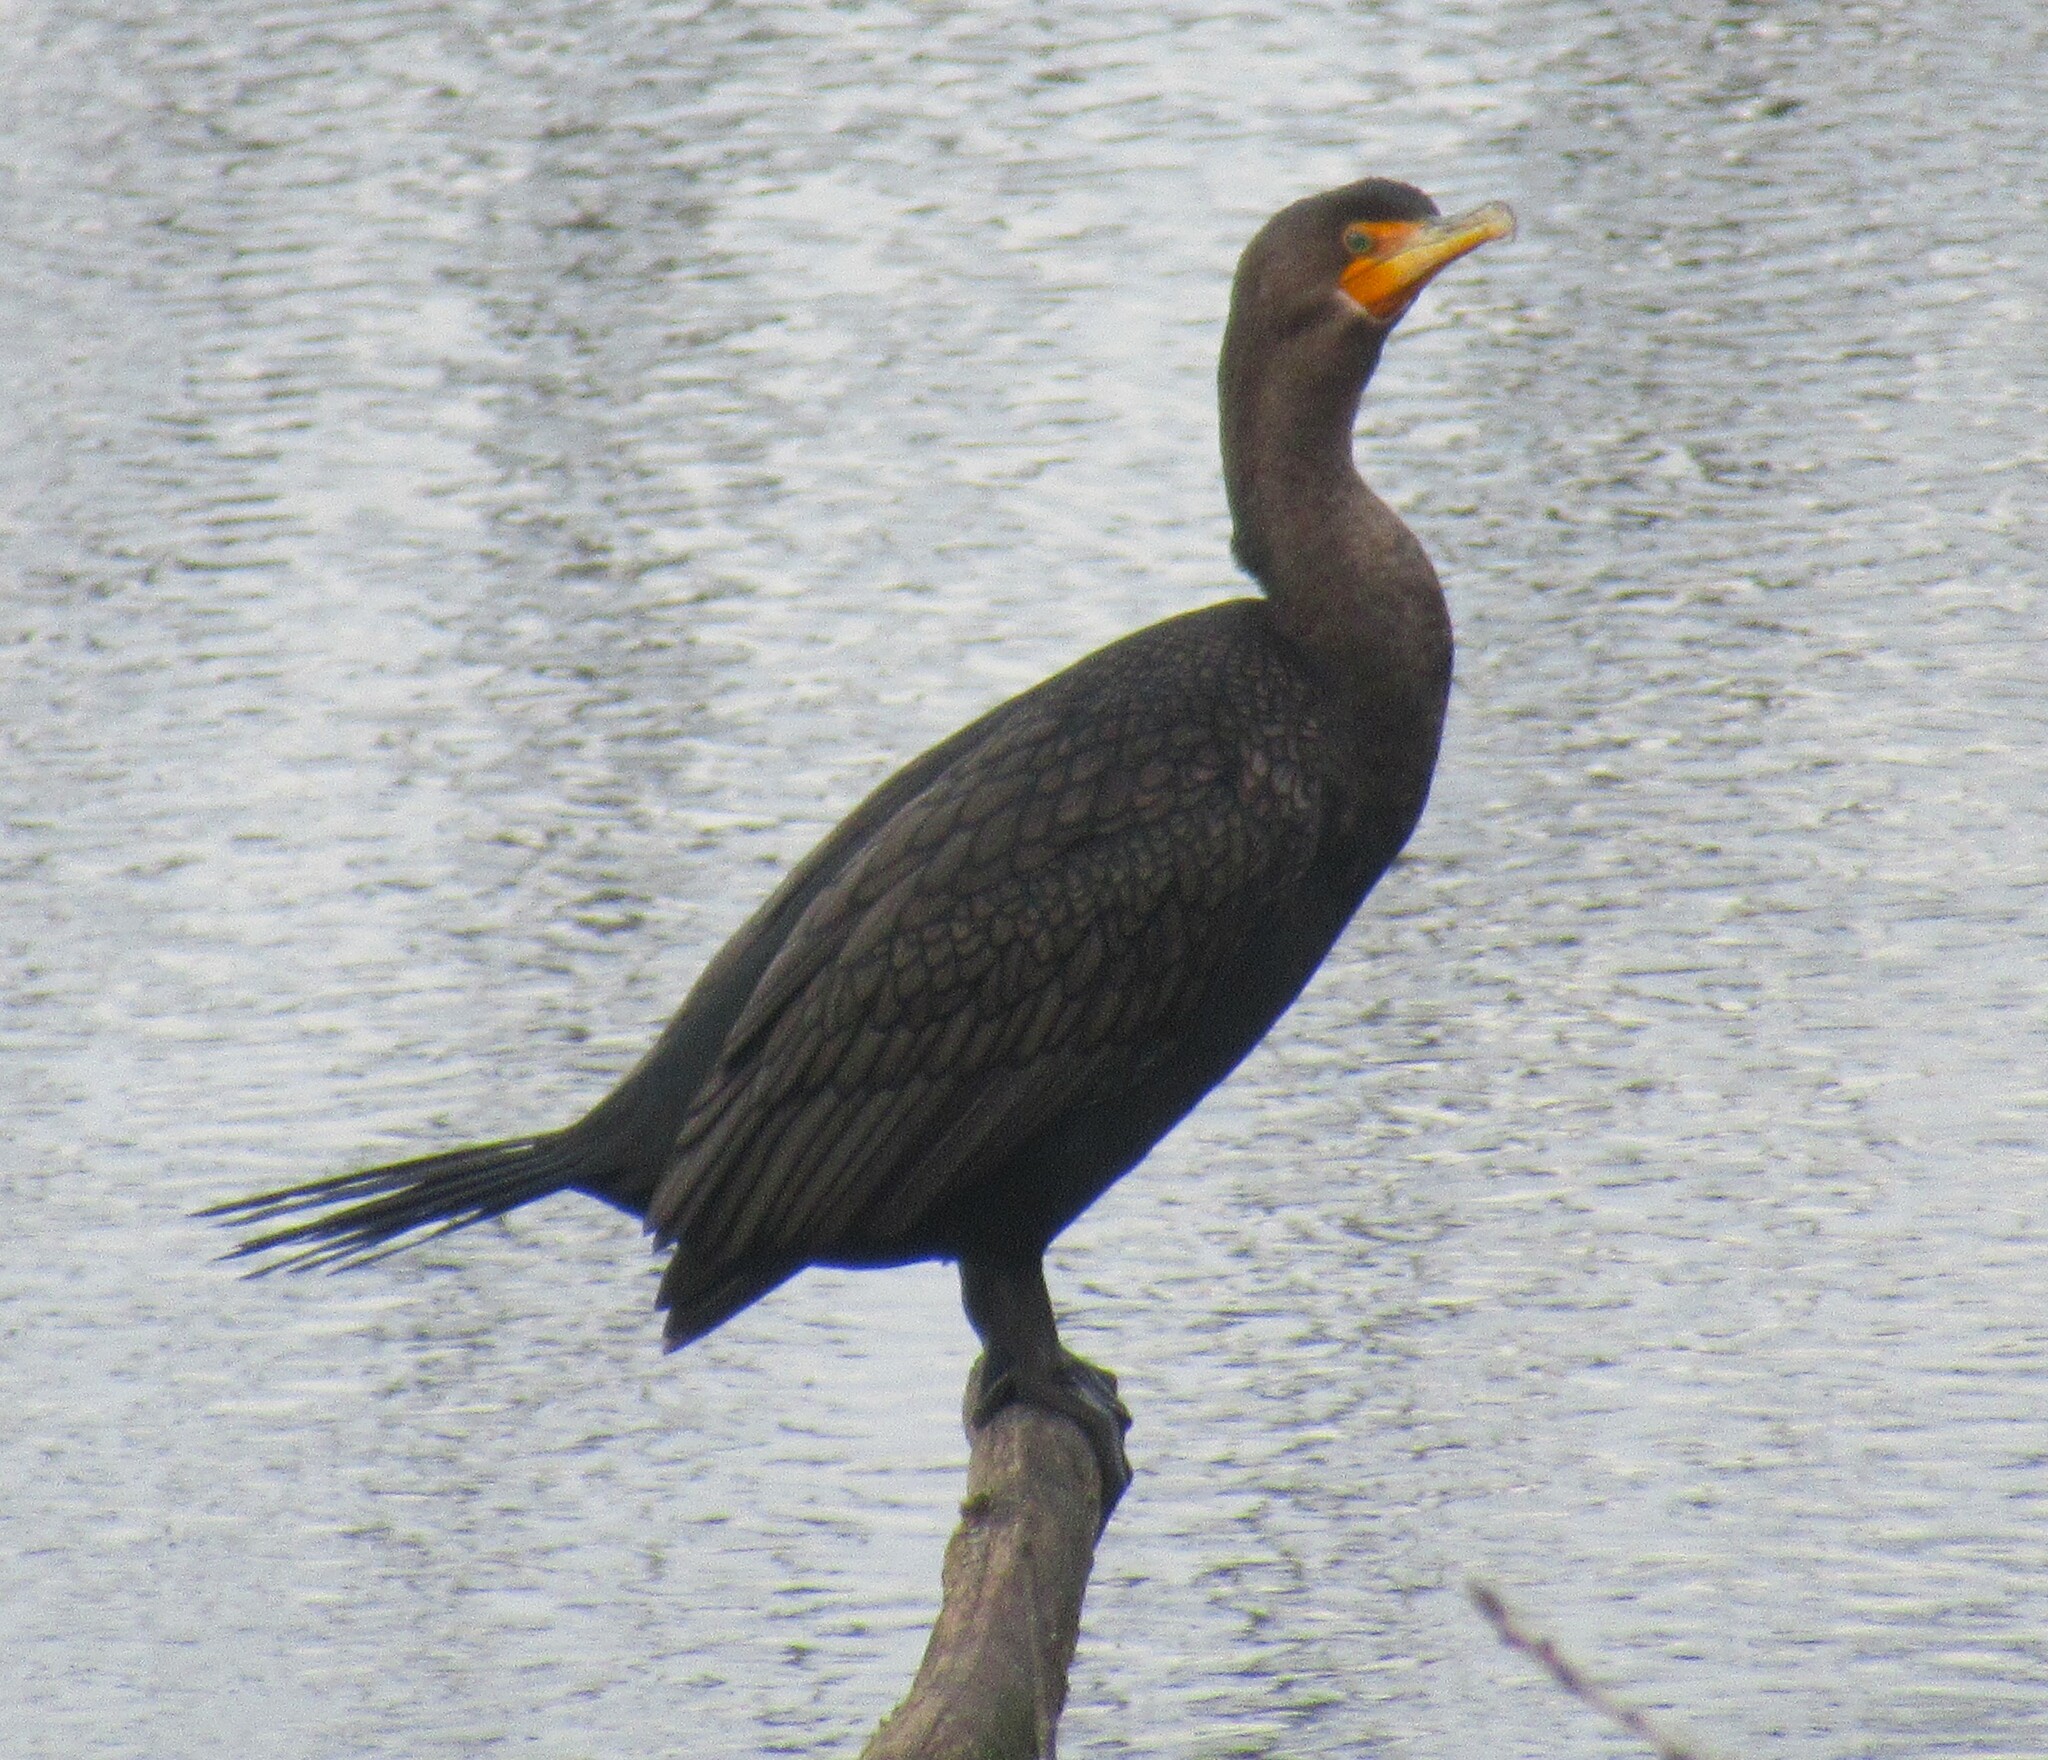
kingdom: Animalia
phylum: Chordata
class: Aves
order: Suliformes
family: Phalacrocoracidae
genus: Phalacrocorax
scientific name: Phalacrocorax auritus
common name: Double-crested cormorant
